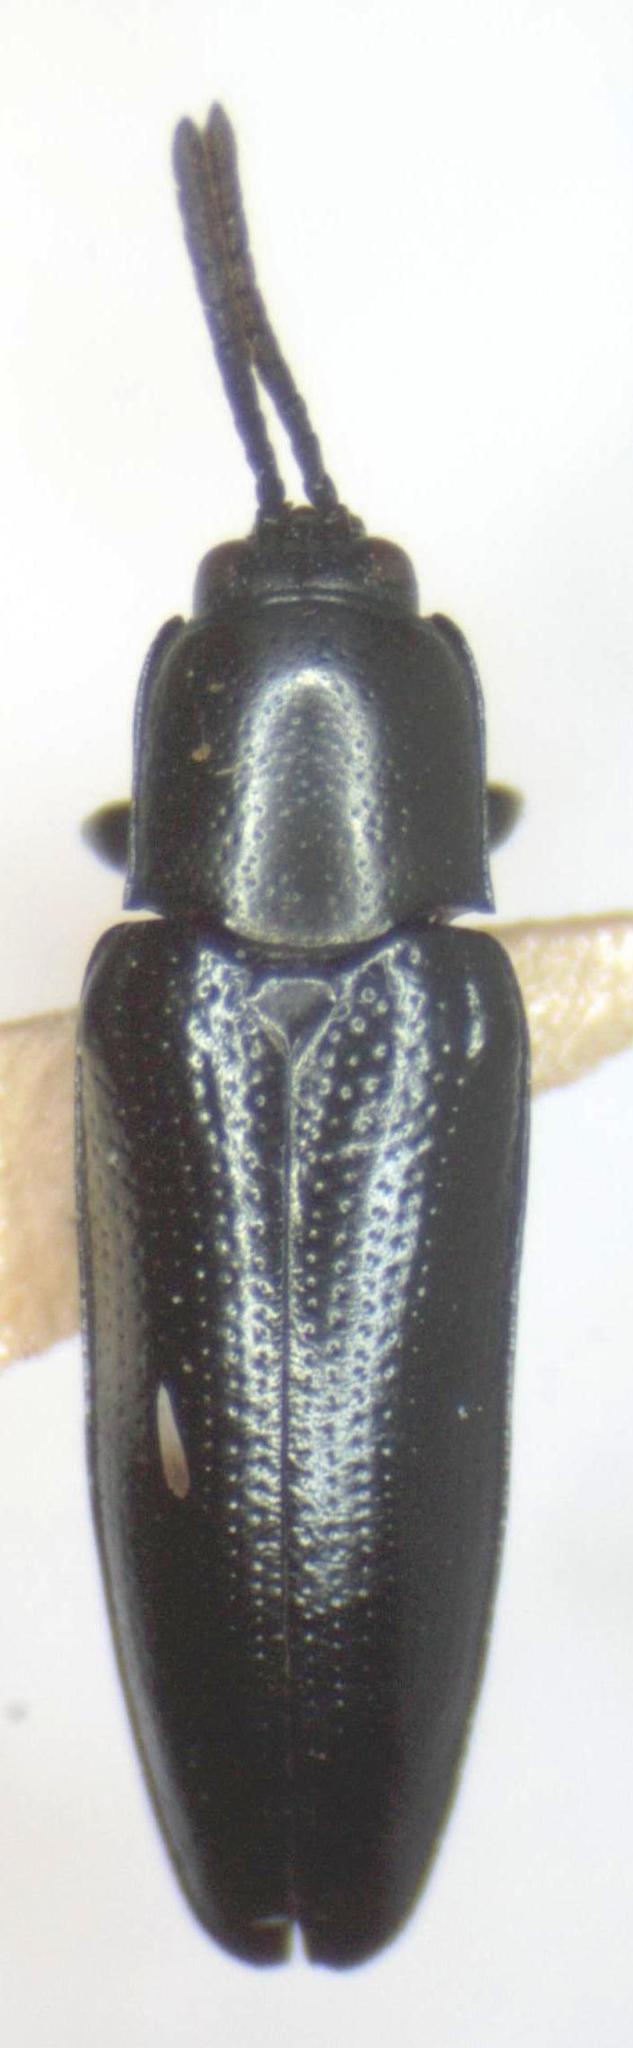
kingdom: Animalia
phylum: Arthropoda
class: Insecta
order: Coleoptera
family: Chrysomelidae
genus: Stenispa
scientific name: Stenispa sallei
